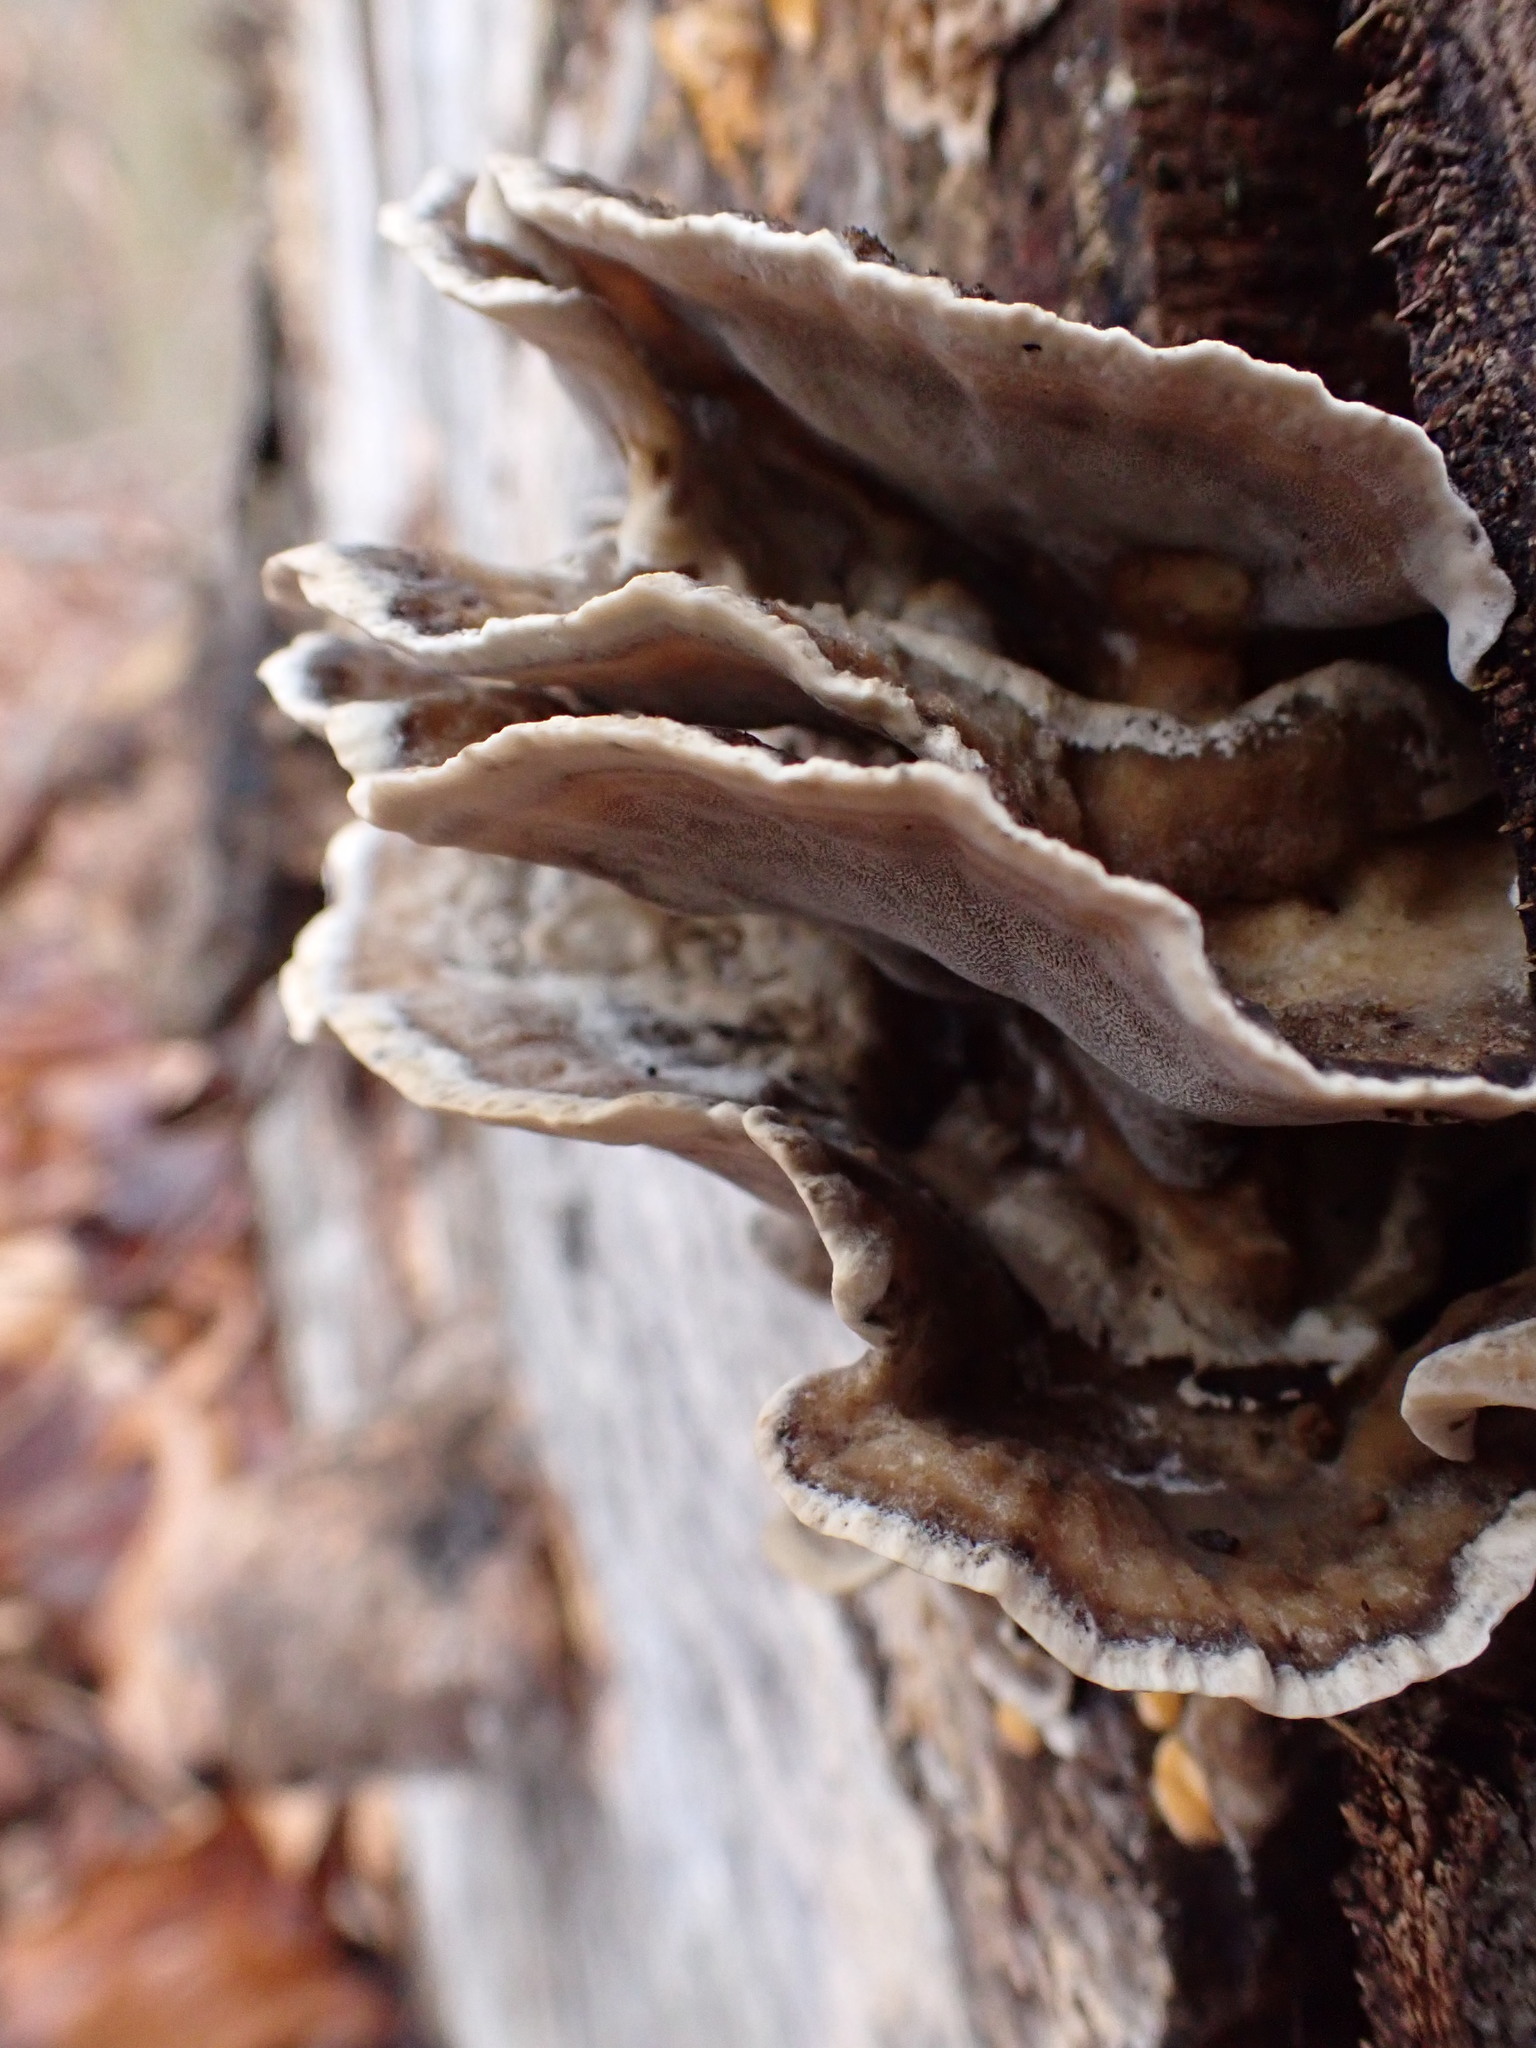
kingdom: Fungi
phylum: Basidiomycota
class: Agaricomycetes
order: Polyporales
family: Phanerochaetaceae
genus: Bjerkandera
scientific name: Bjerkandera adusta
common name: Smoky bracket
